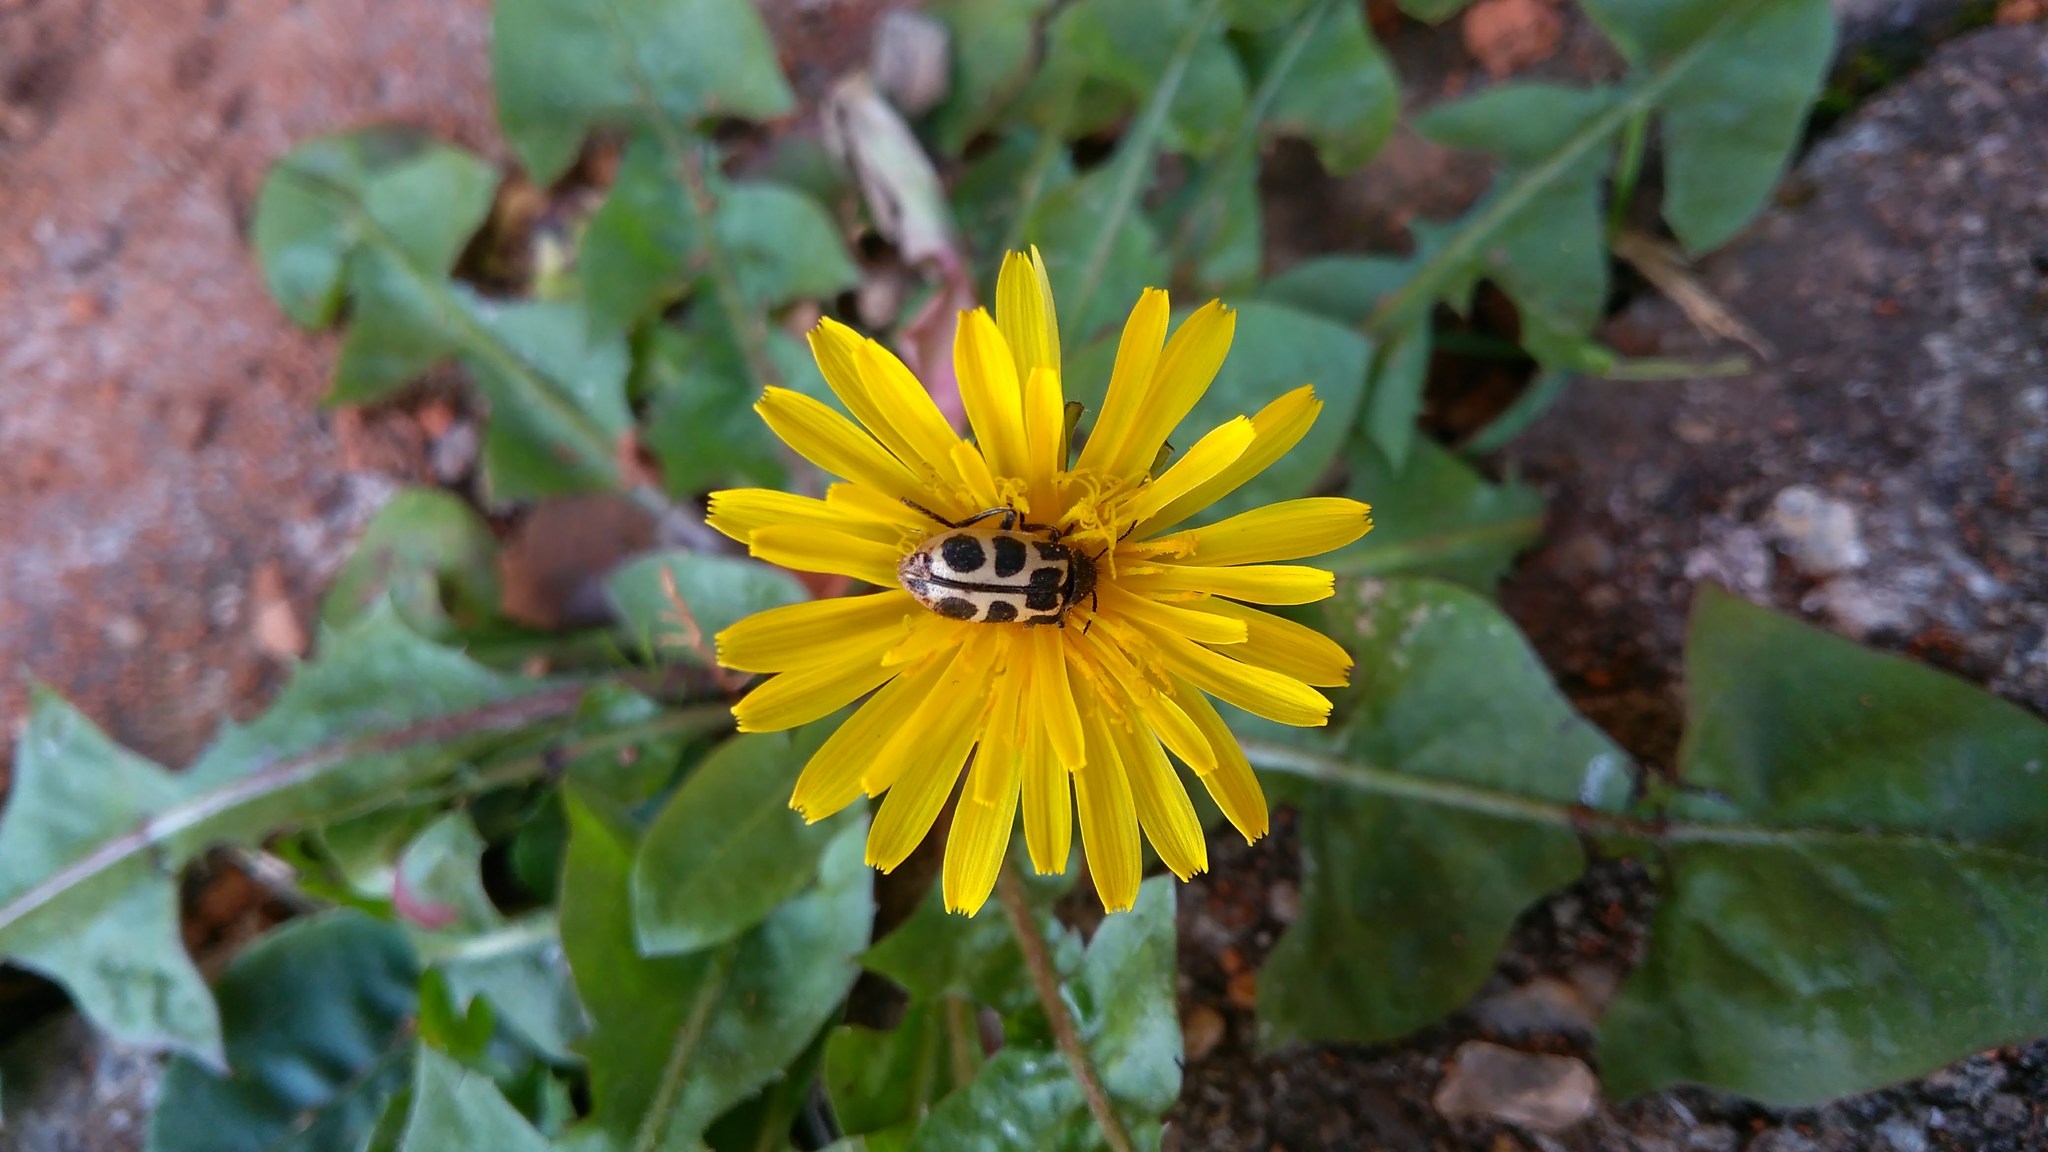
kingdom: Animalia
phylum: Arthropoda
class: Insecta
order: Coleoptera
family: Melyridae
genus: Astylus
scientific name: Astylus
